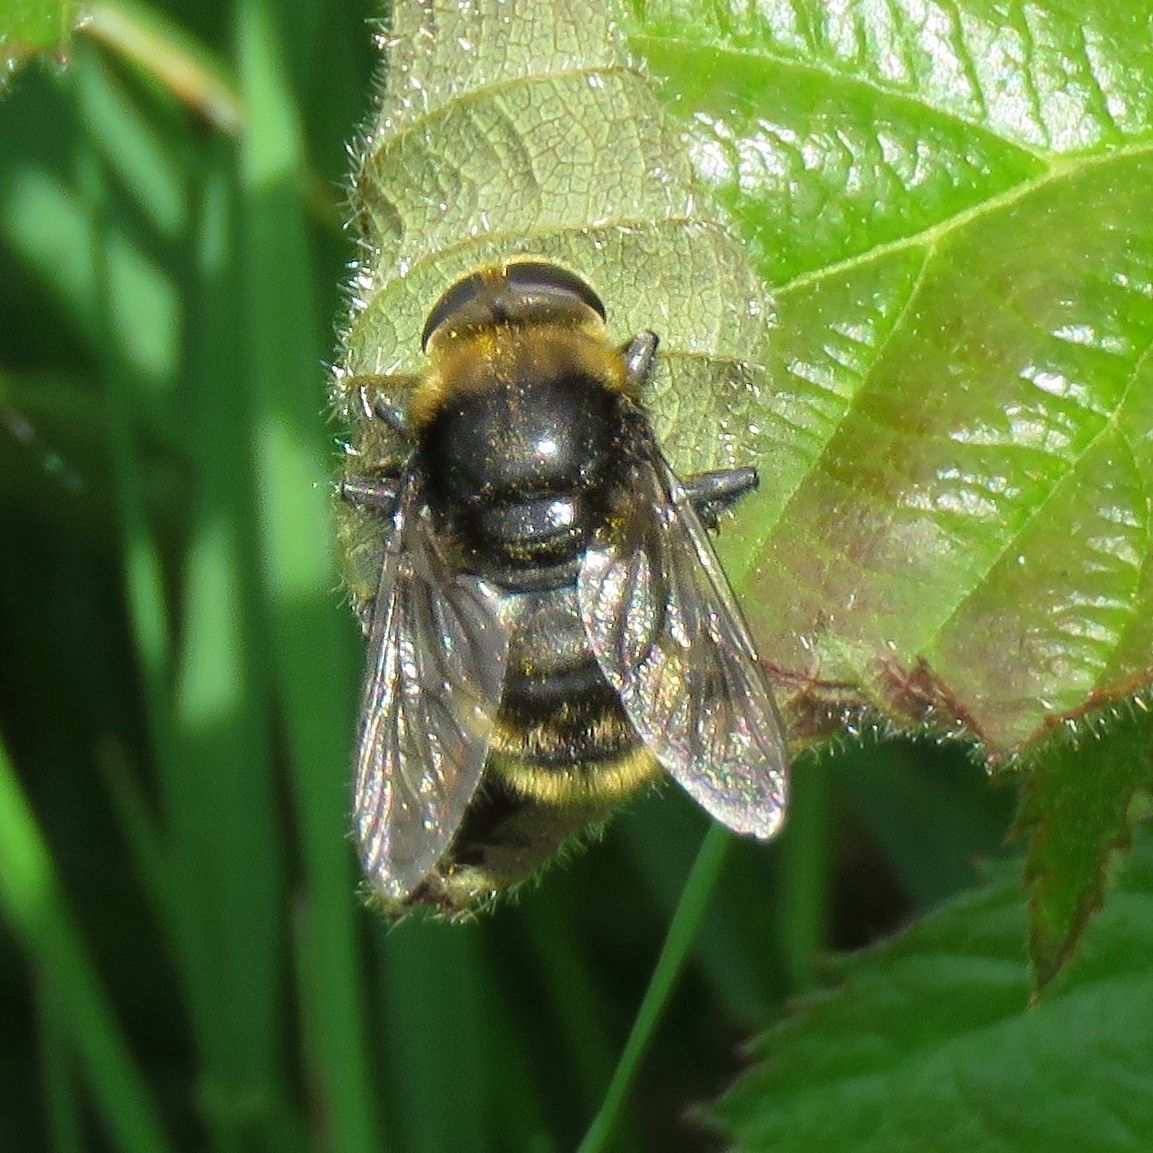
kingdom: Animalia
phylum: Arthropoda
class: Insecta
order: Diptera
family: Syrphidae
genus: Merodon
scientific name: Merodon equestris
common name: Greater bulb-fly
